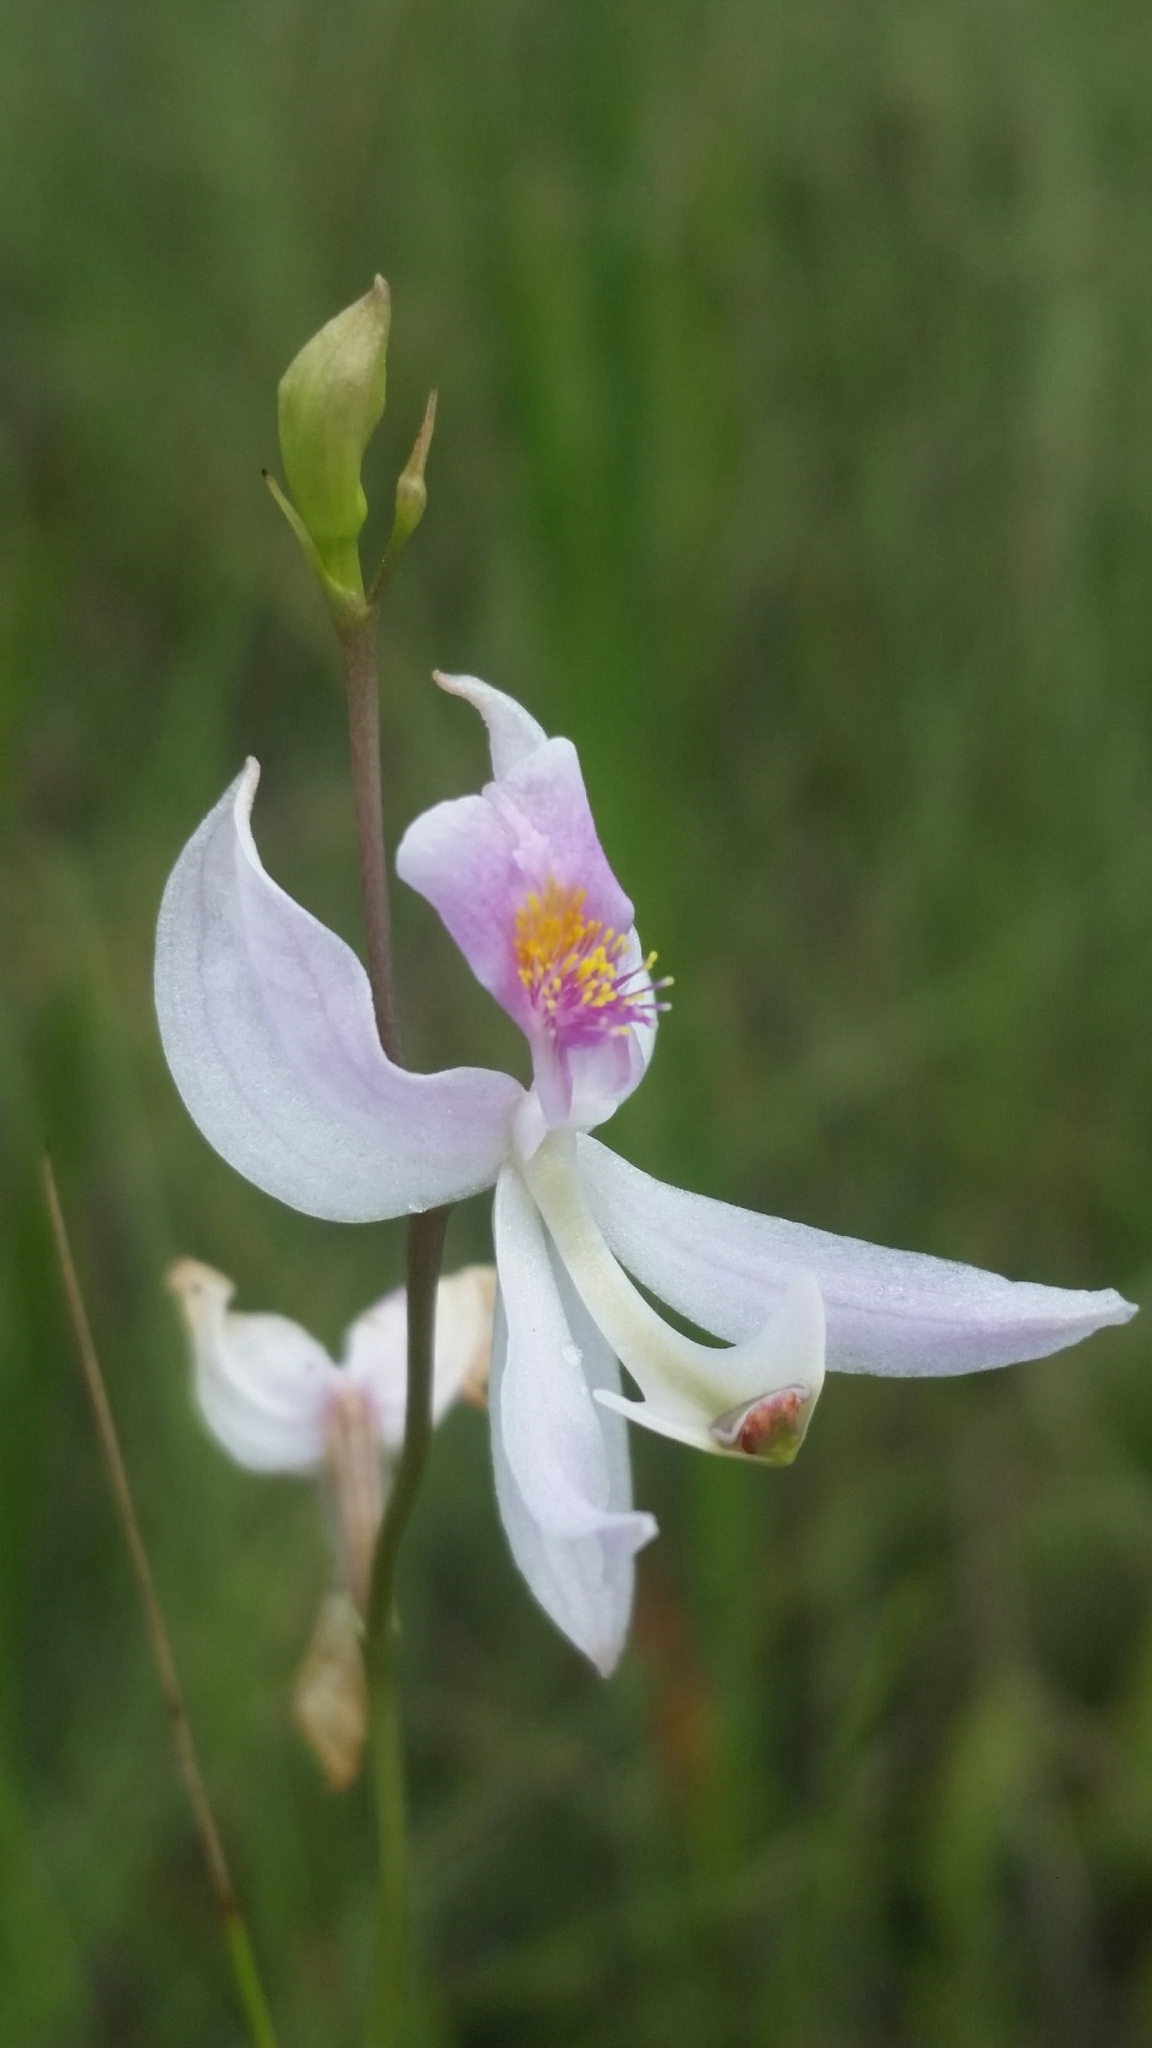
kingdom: Plantae
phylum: Tracheophyta
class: Liliopsida
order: Asparagales
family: Orchidaceae
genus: Calopogon
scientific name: Calopogon pallidus
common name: Pale grasspink
